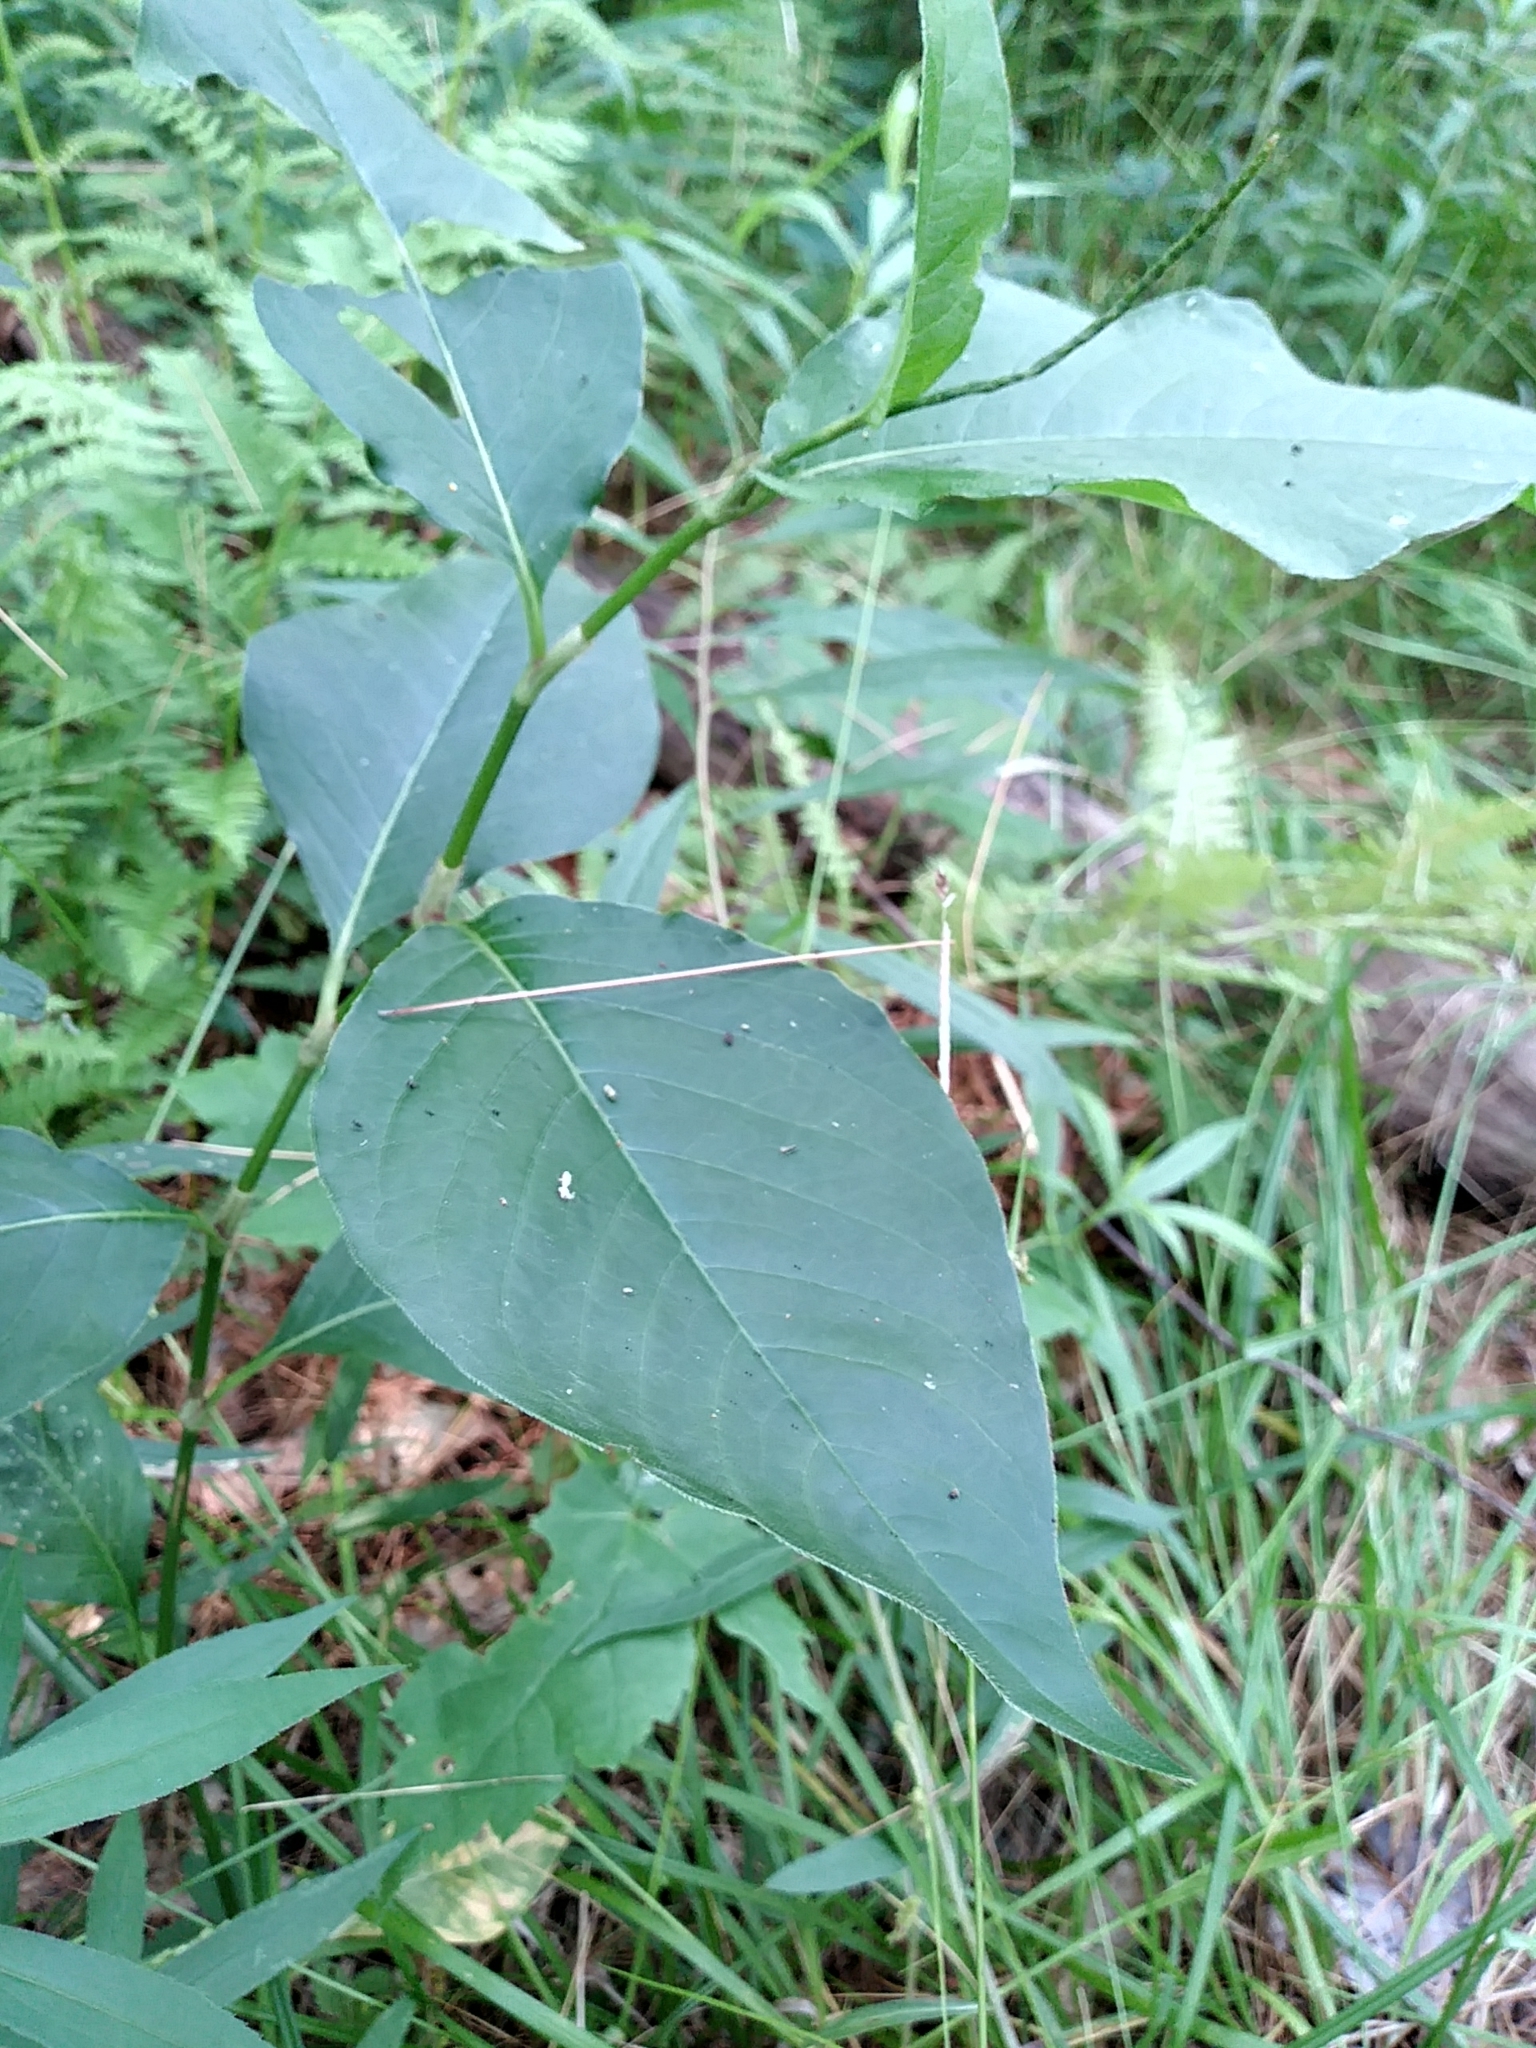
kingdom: Plantae
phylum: Tracheophyta
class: Magnoliopsida
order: Caryophyllales
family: Polygonaceae
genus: Persicaria
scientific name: Persicaria virginiana
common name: Jumpseed
